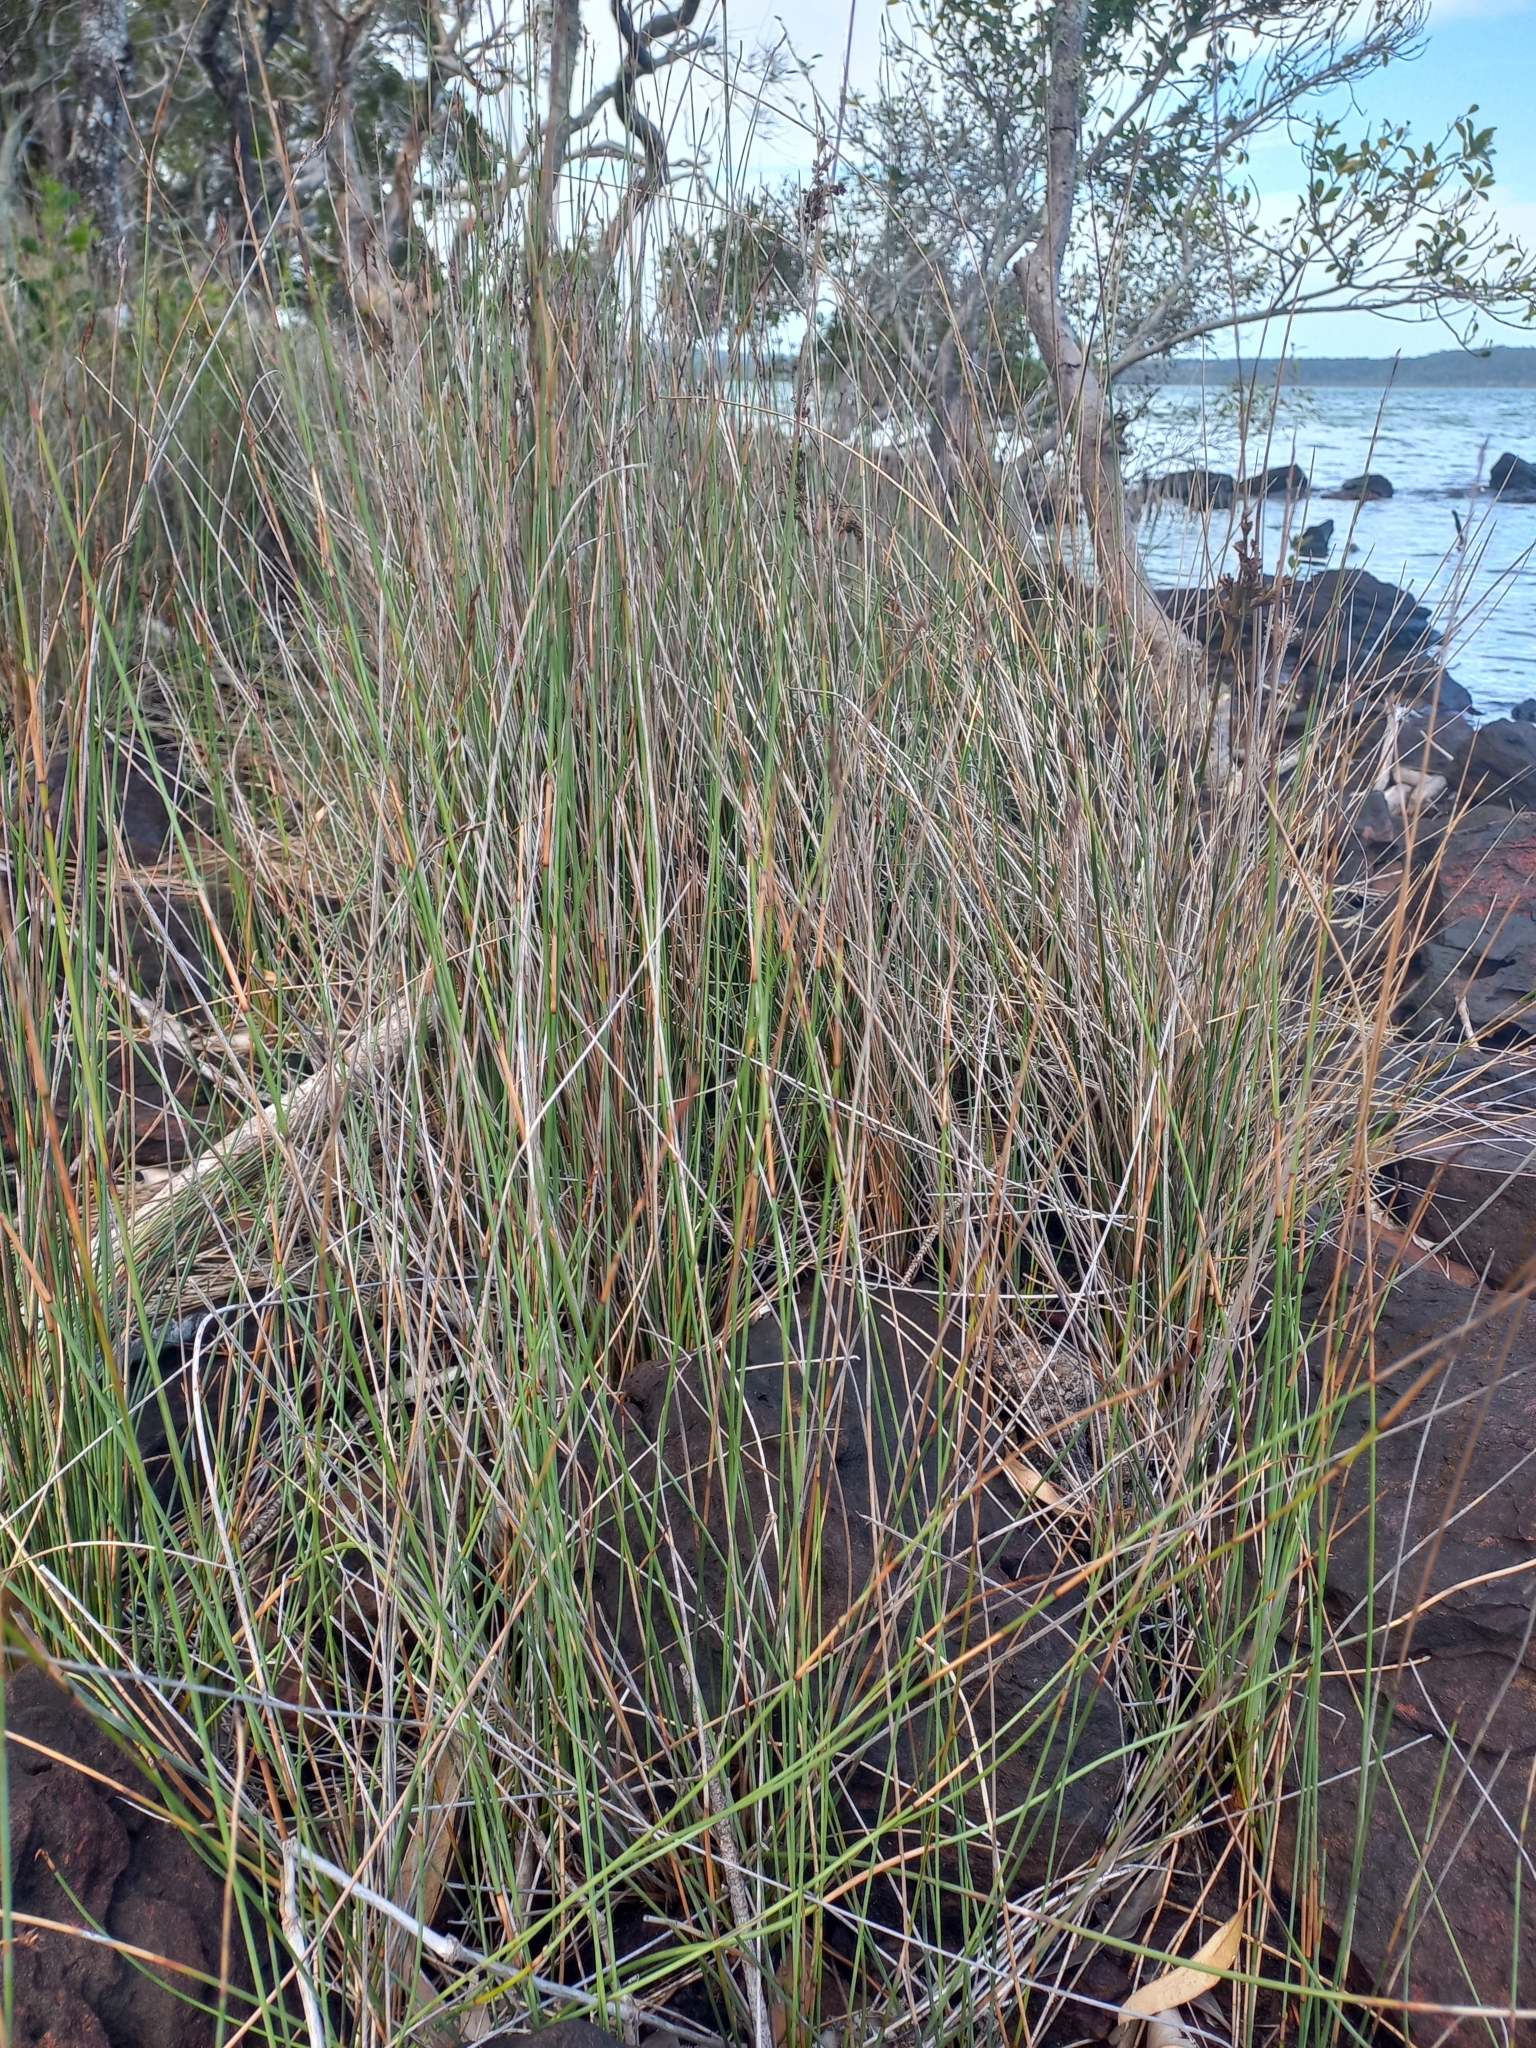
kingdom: Plantae
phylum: Tracheophyta
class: Liliopsida
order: Poales
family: Cyperaceae
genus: Machaerina
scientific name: Machaerina juncea
